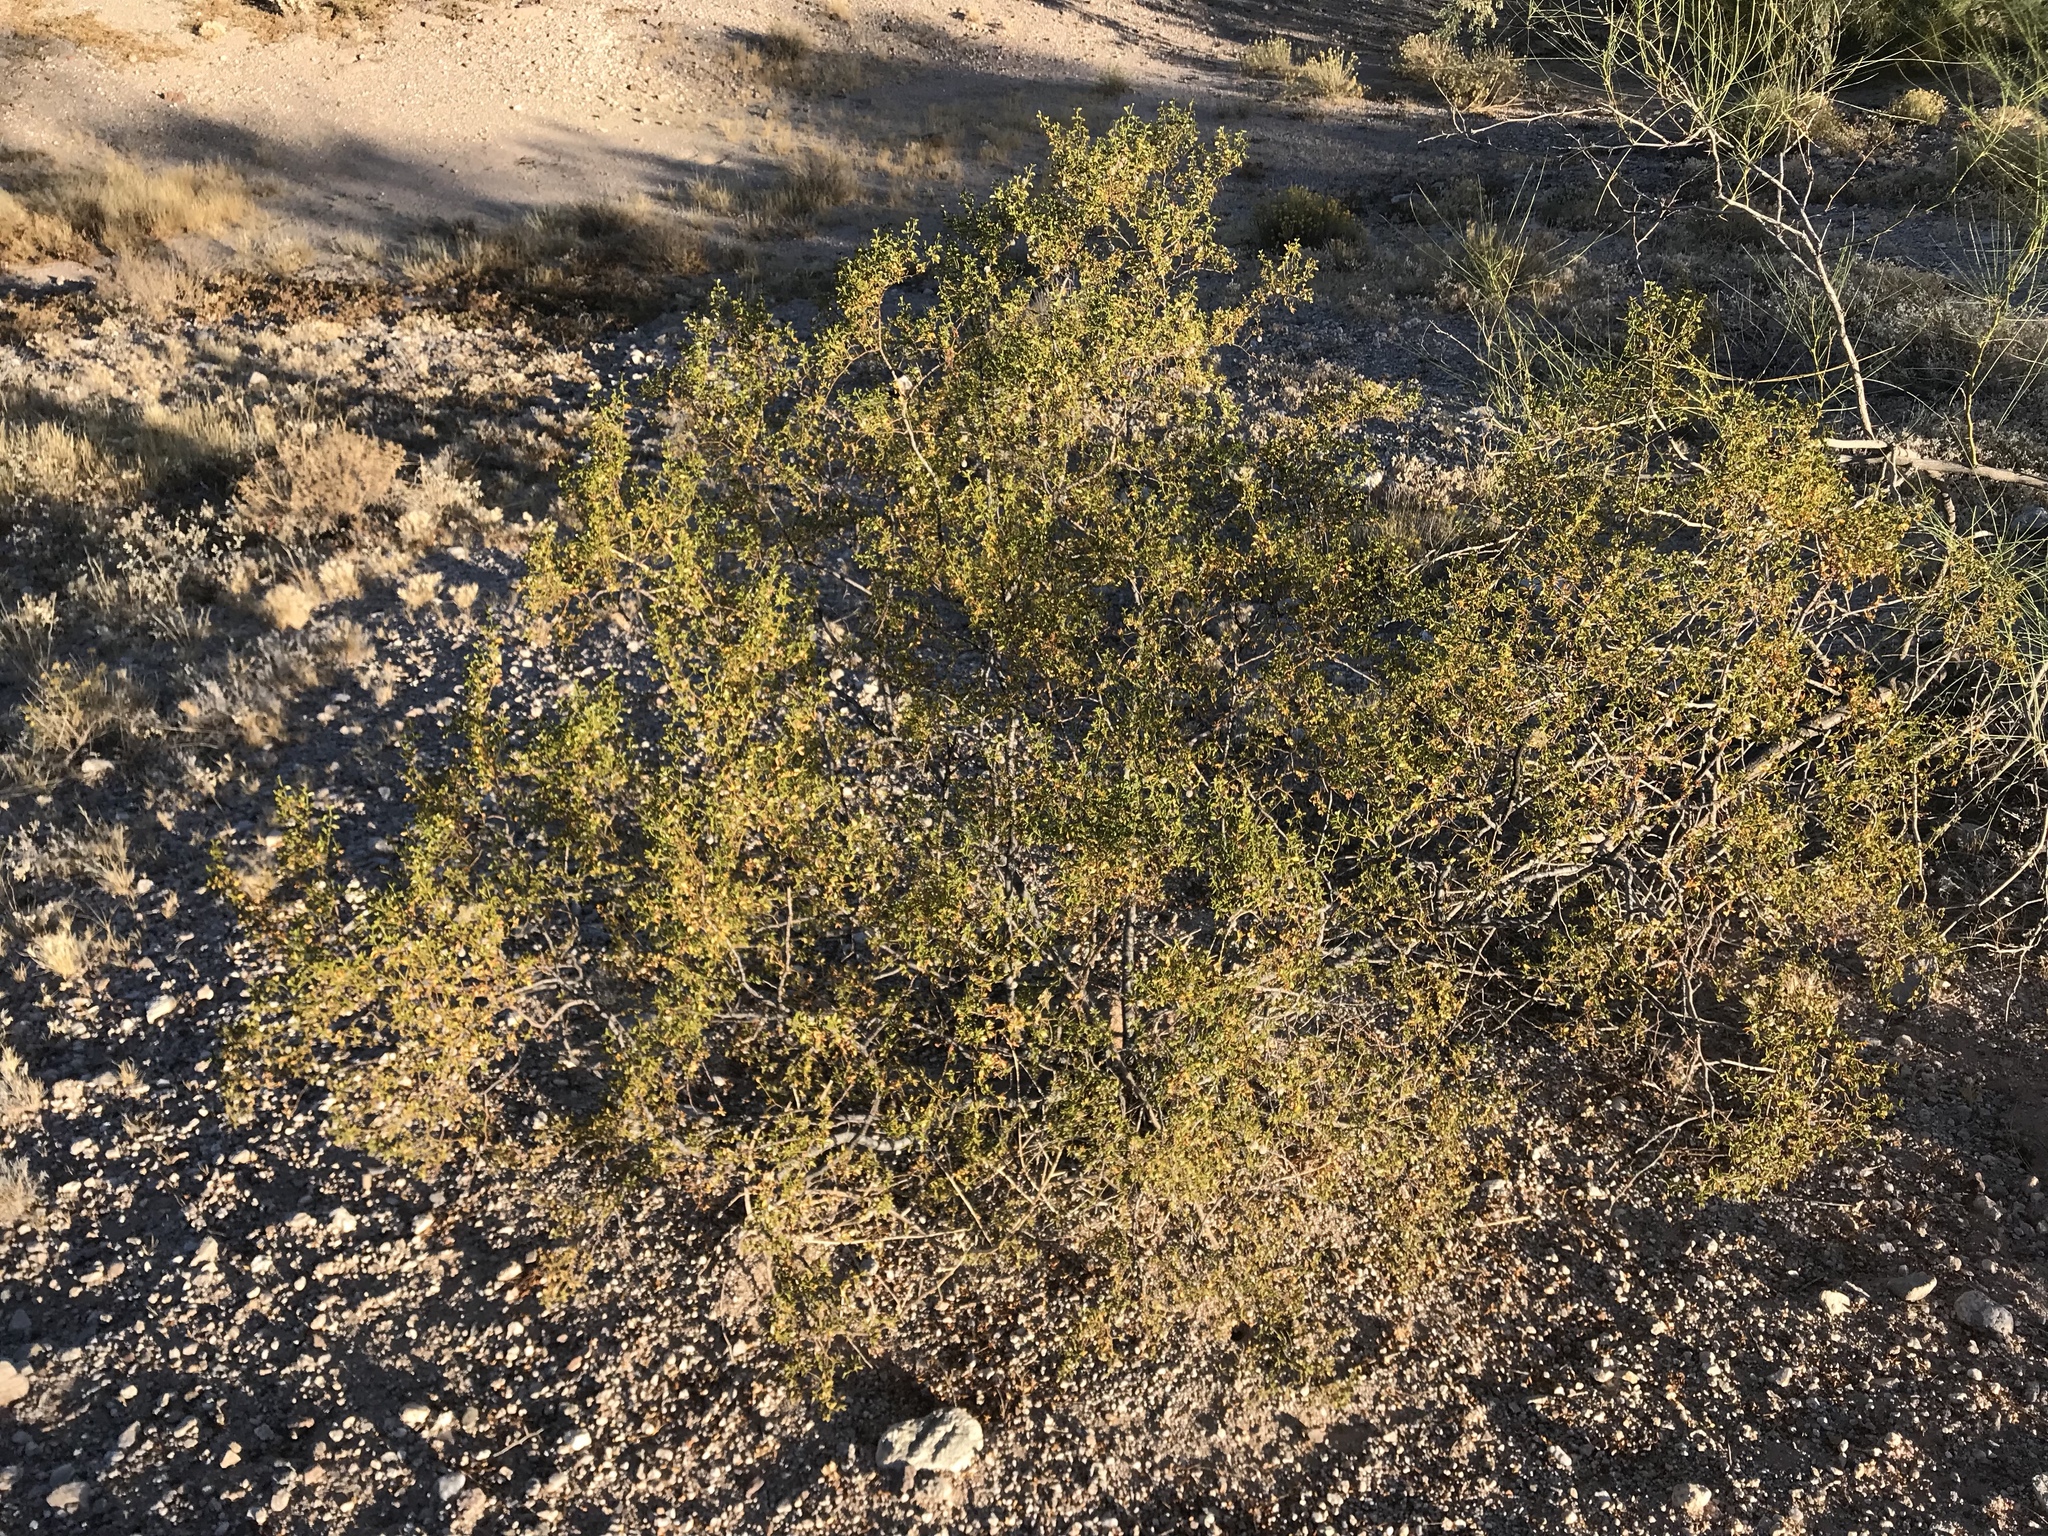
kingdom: Plantae
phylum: Tracheophyta
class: Magnoliopsida
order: Zygophyllales
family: Zygophyllaceae
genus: Larrea
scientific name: Larrea tridentata
